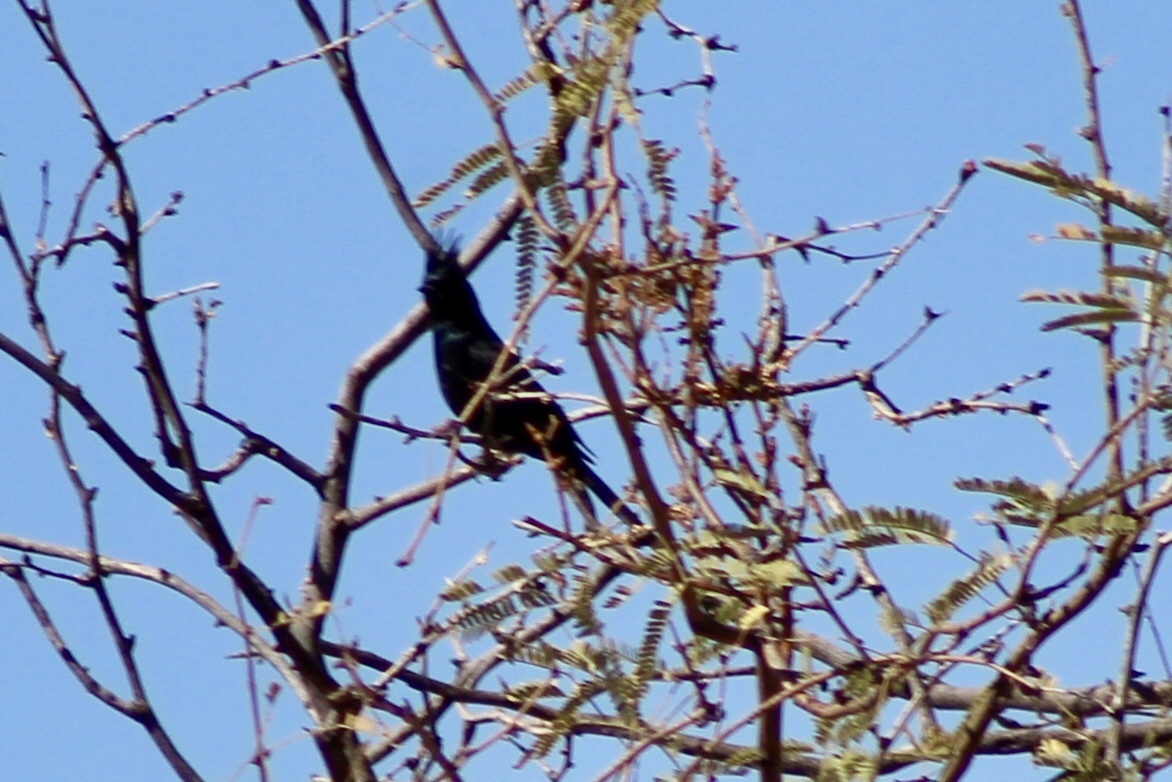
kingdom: Animalia
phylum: Chordata
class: Aves
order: Passeriformes
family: Ptilogonatidae
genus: Phainopepla
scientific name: Phainopepla nitens
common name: Phainopepla
